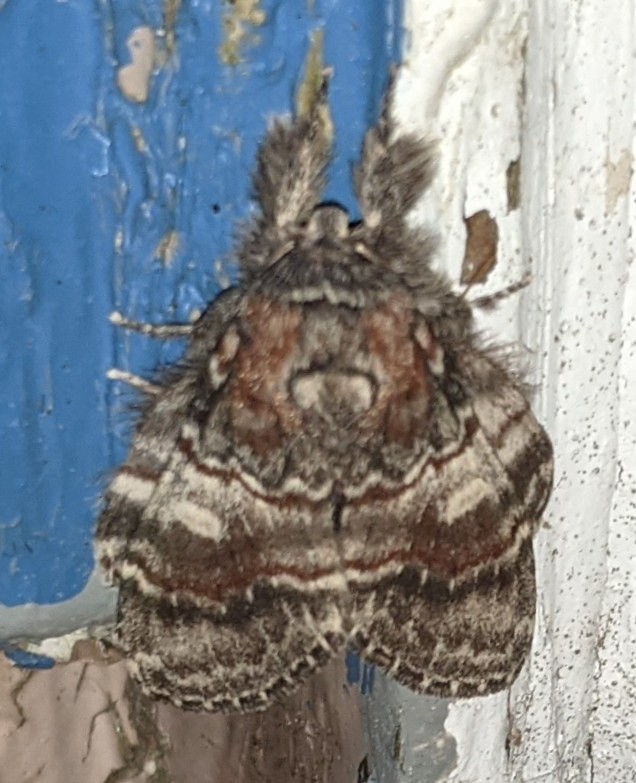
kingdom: Animalia
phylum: Arthropoda
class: Insecta
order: Lepidoptera
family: Notodontidae
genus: Peridea
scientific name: Peridea ferruginea
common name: Chocolate prominent
